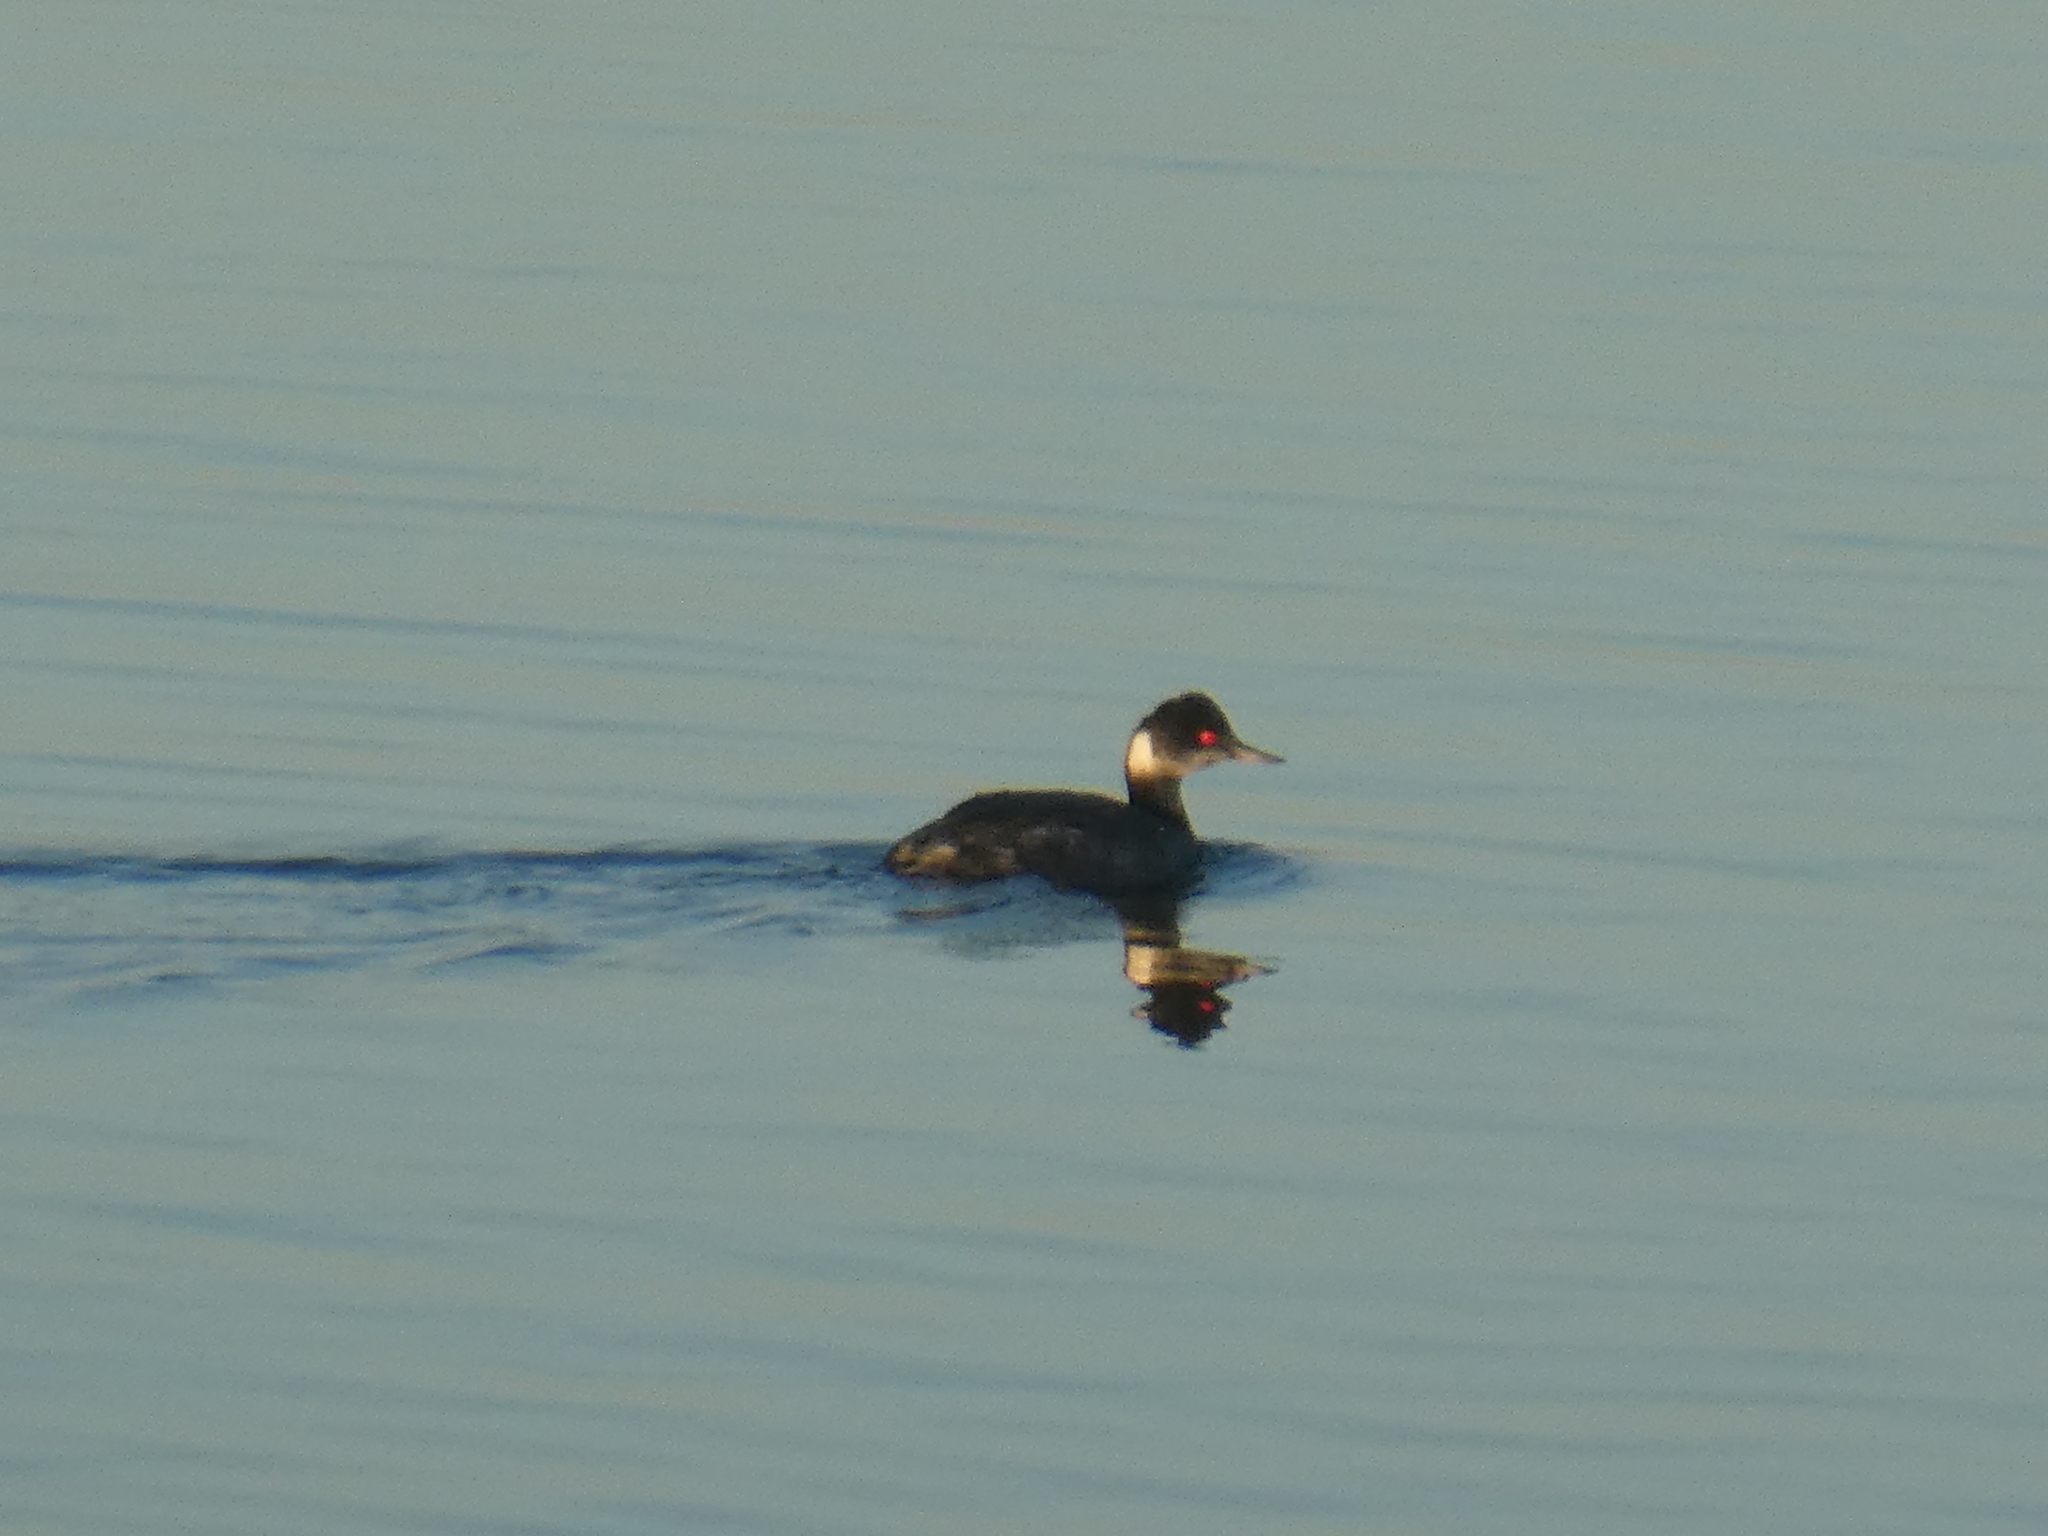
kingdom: Animalia
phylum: Chordata
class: Aves
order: Podicipediformes
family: Podicipedidae
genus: Podiceps
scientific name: Podiceps nigricollis
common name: Black-necked grebe
